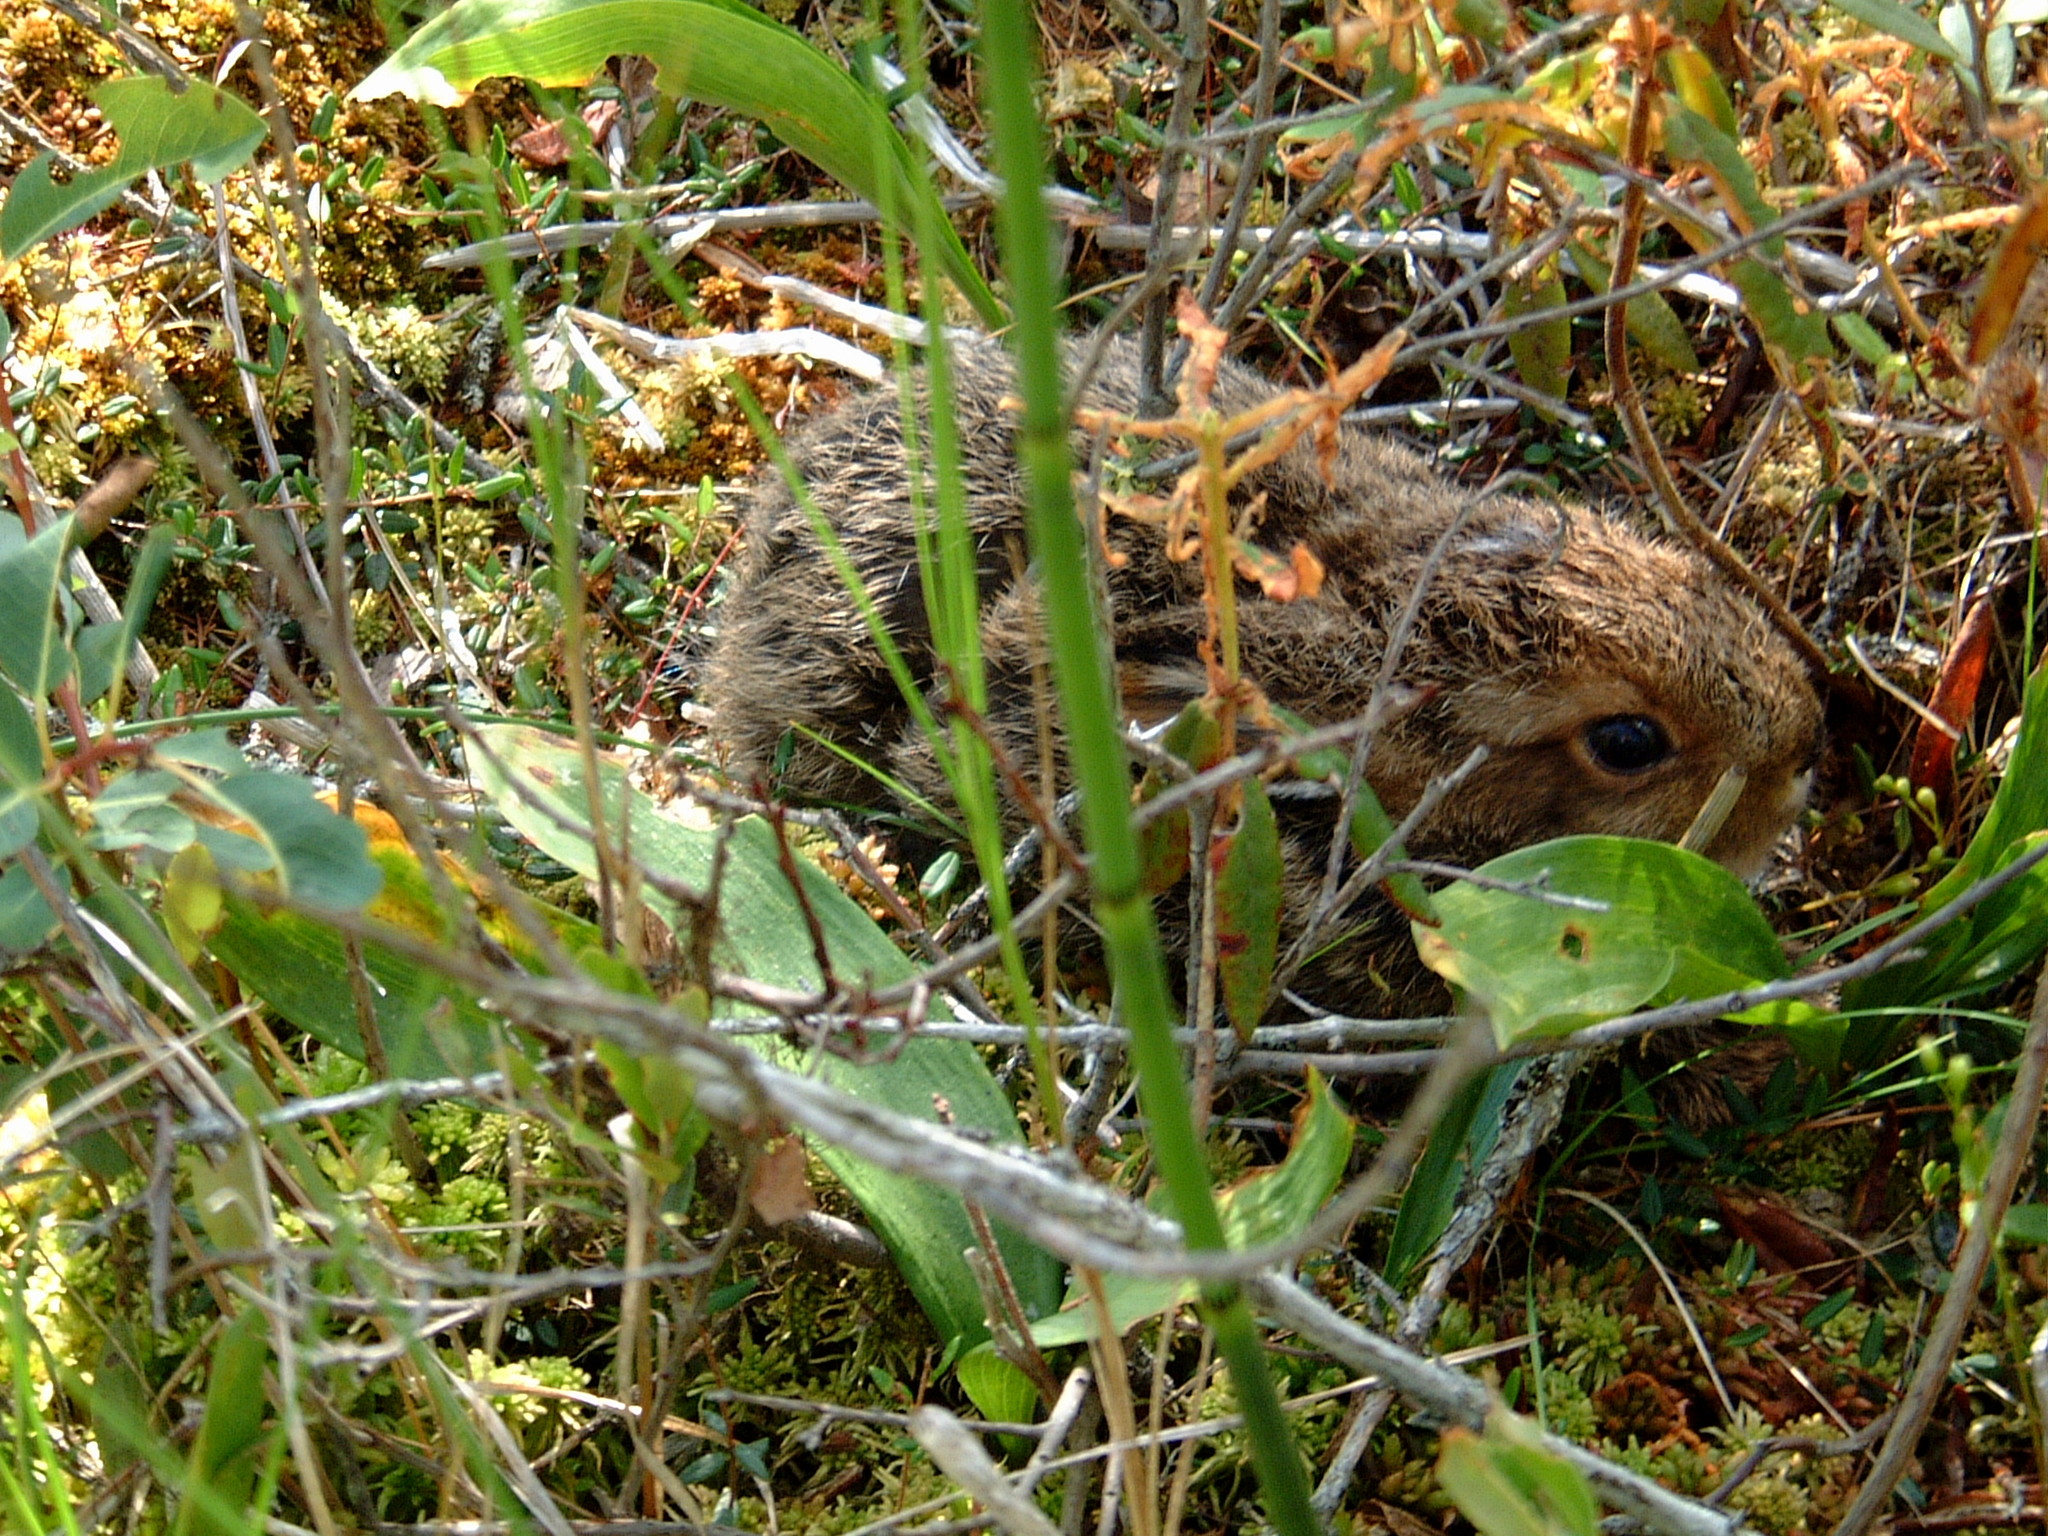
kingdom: Animalia
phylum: Chordata
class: Mammalia
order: Lagomorpha
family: Leporidae
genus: Lepus
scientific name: Lepus americanus
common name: Snowshoe hare
